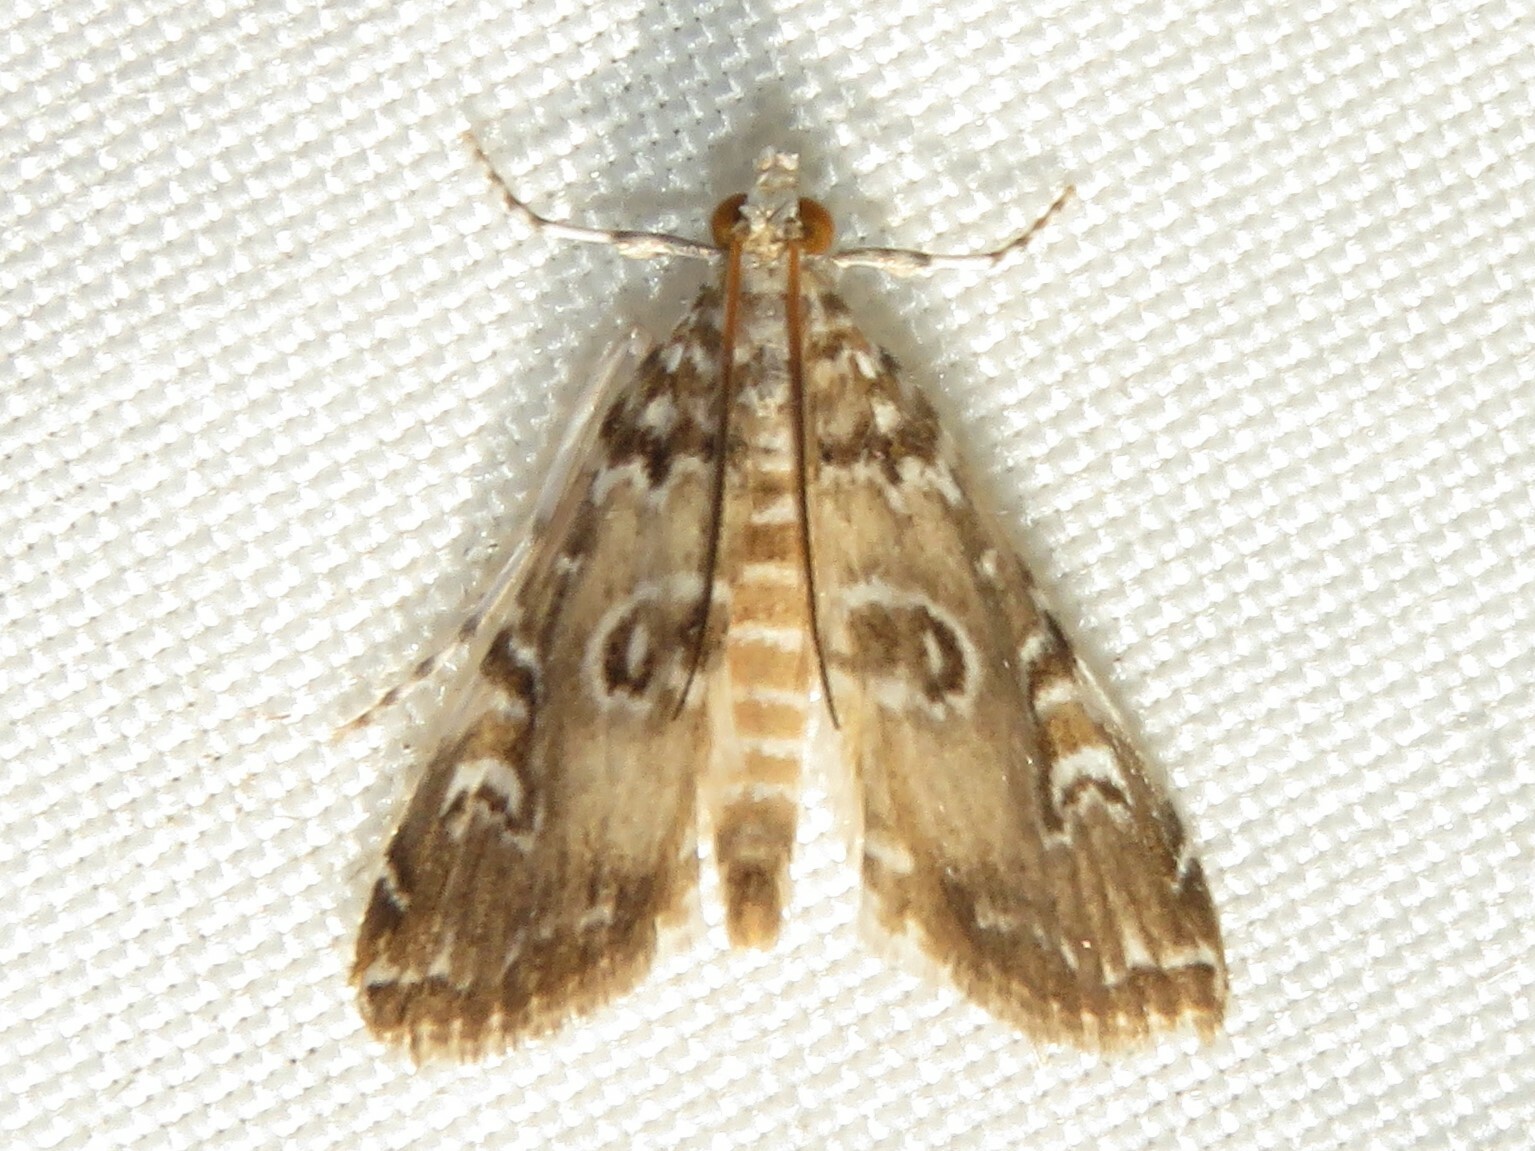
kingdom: Animalia
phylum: Arthropoda
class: Insecta
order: Lepidoptera
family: Crambidae
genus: Elophila
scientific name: Elophila gyralis
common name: Waterlily borer moth
